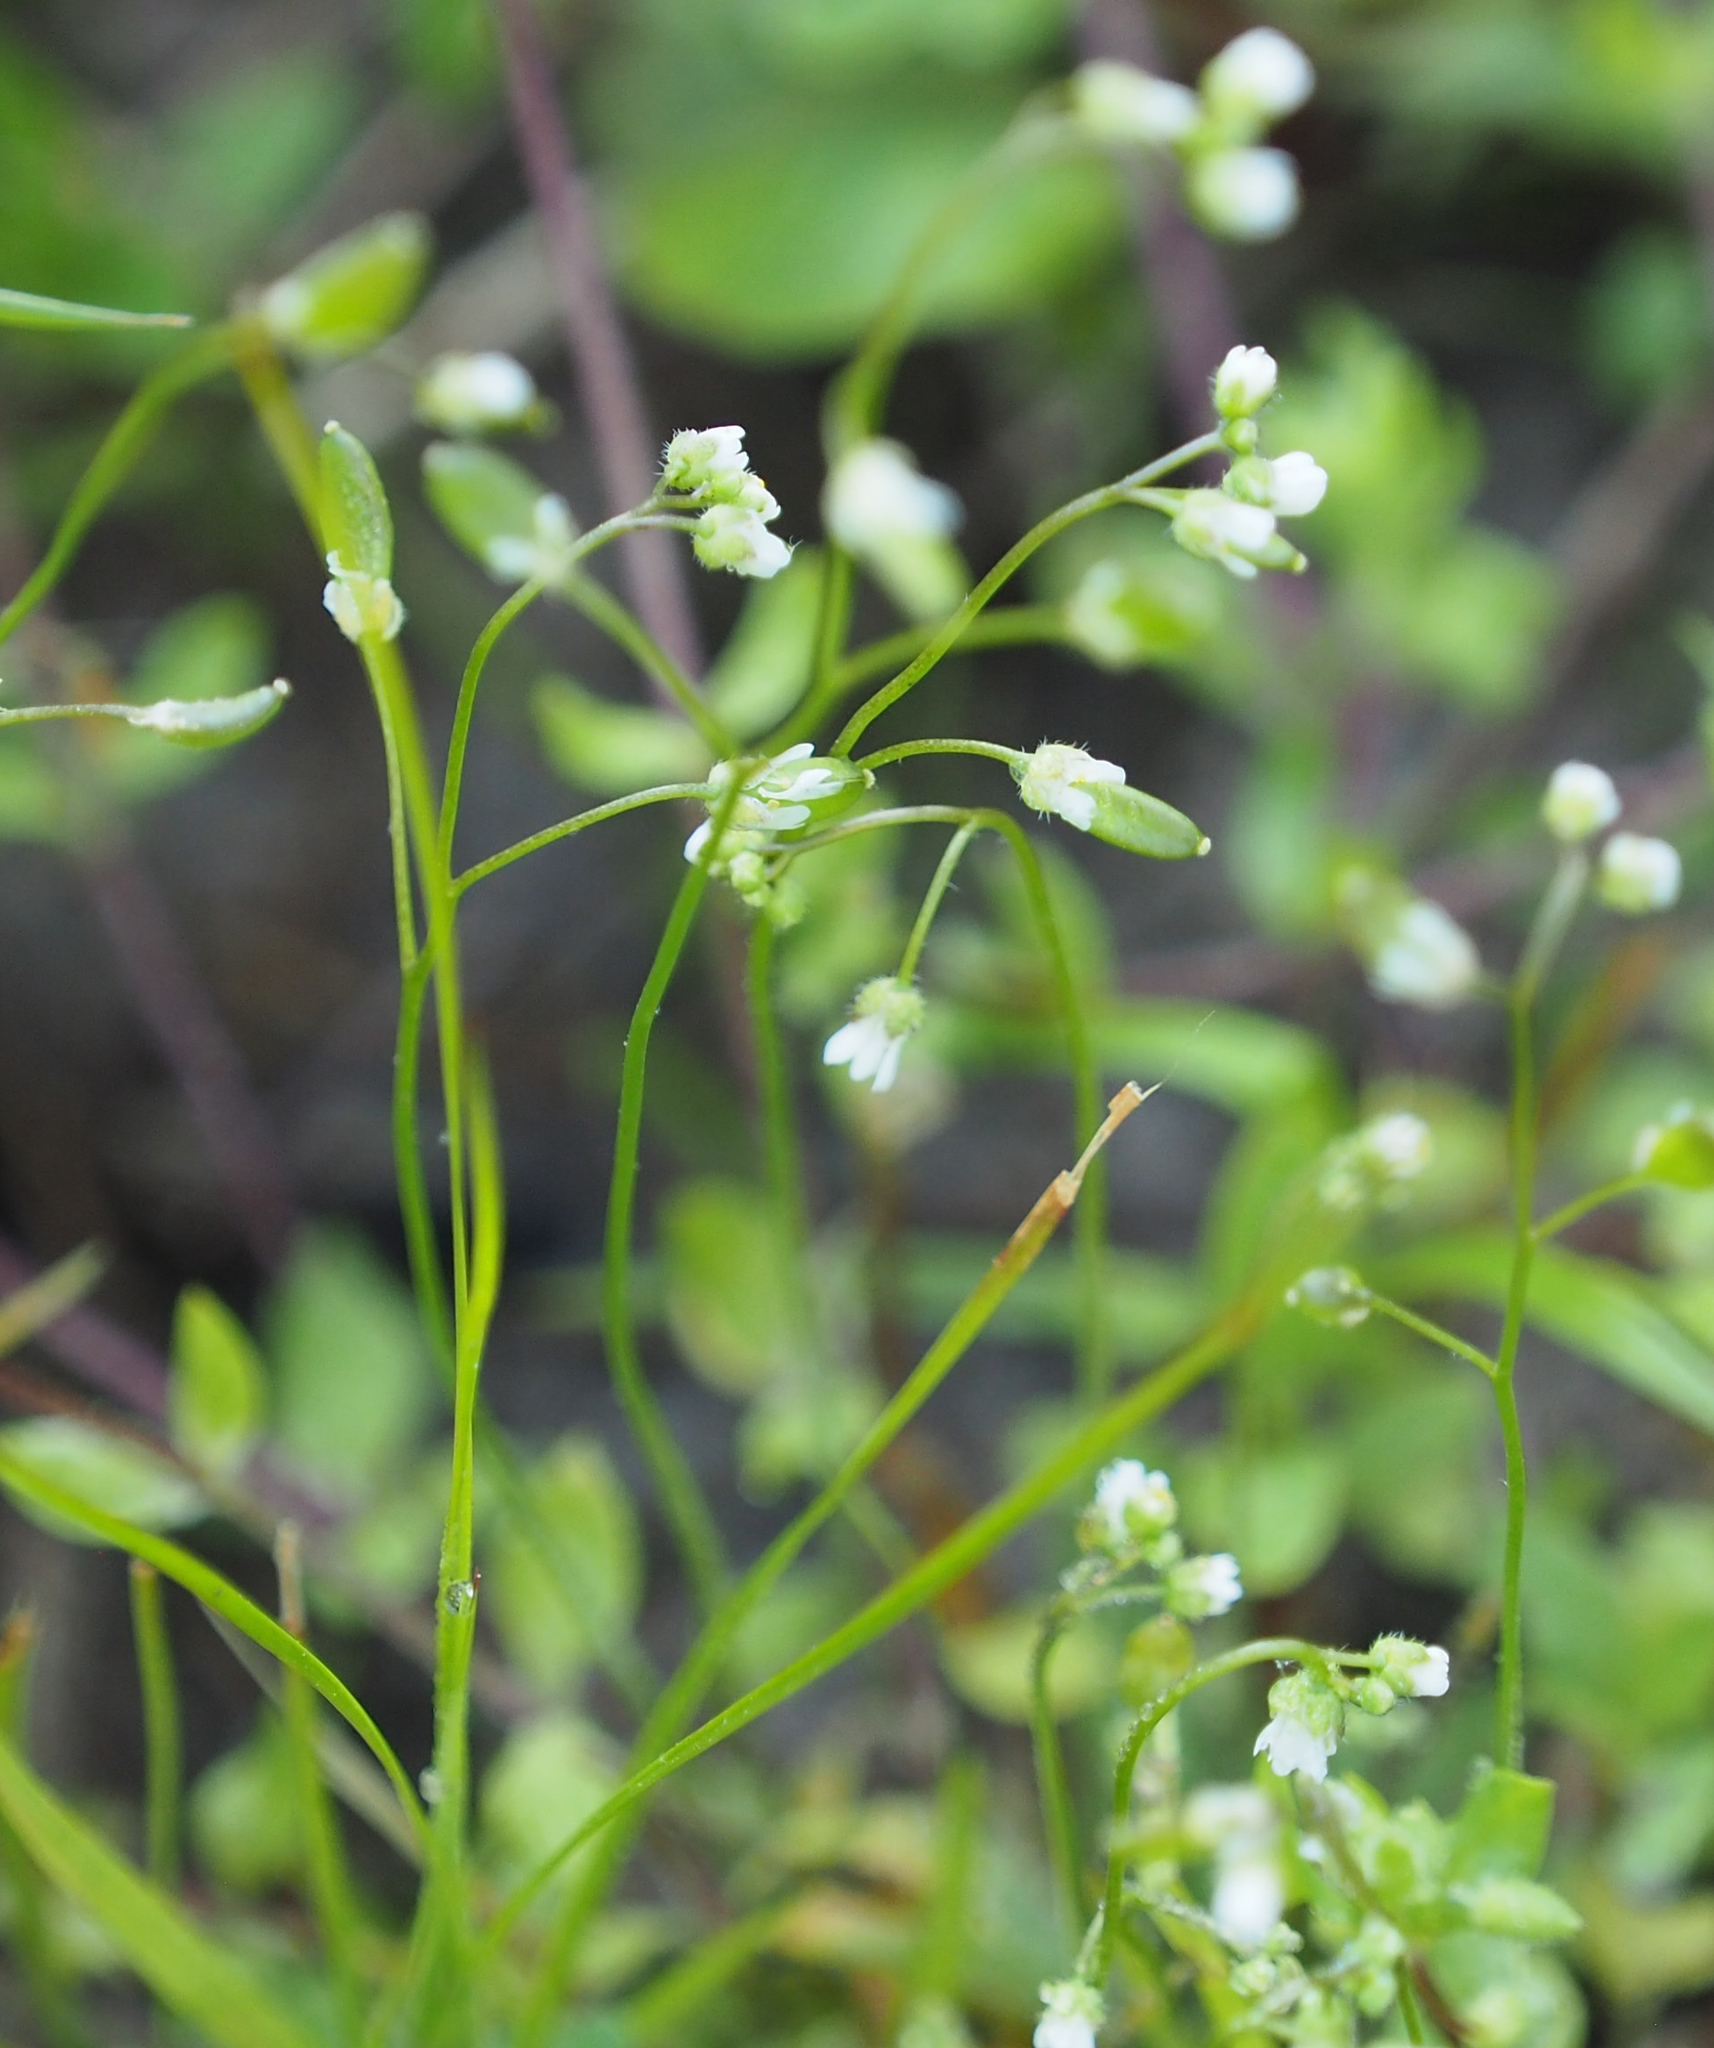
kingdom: Plantae
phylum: Tracheophyta
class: Magnoliopsida
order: Brassicales
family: Brassicaceae
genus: Draba
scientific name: Draba verna
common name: Spring draba
